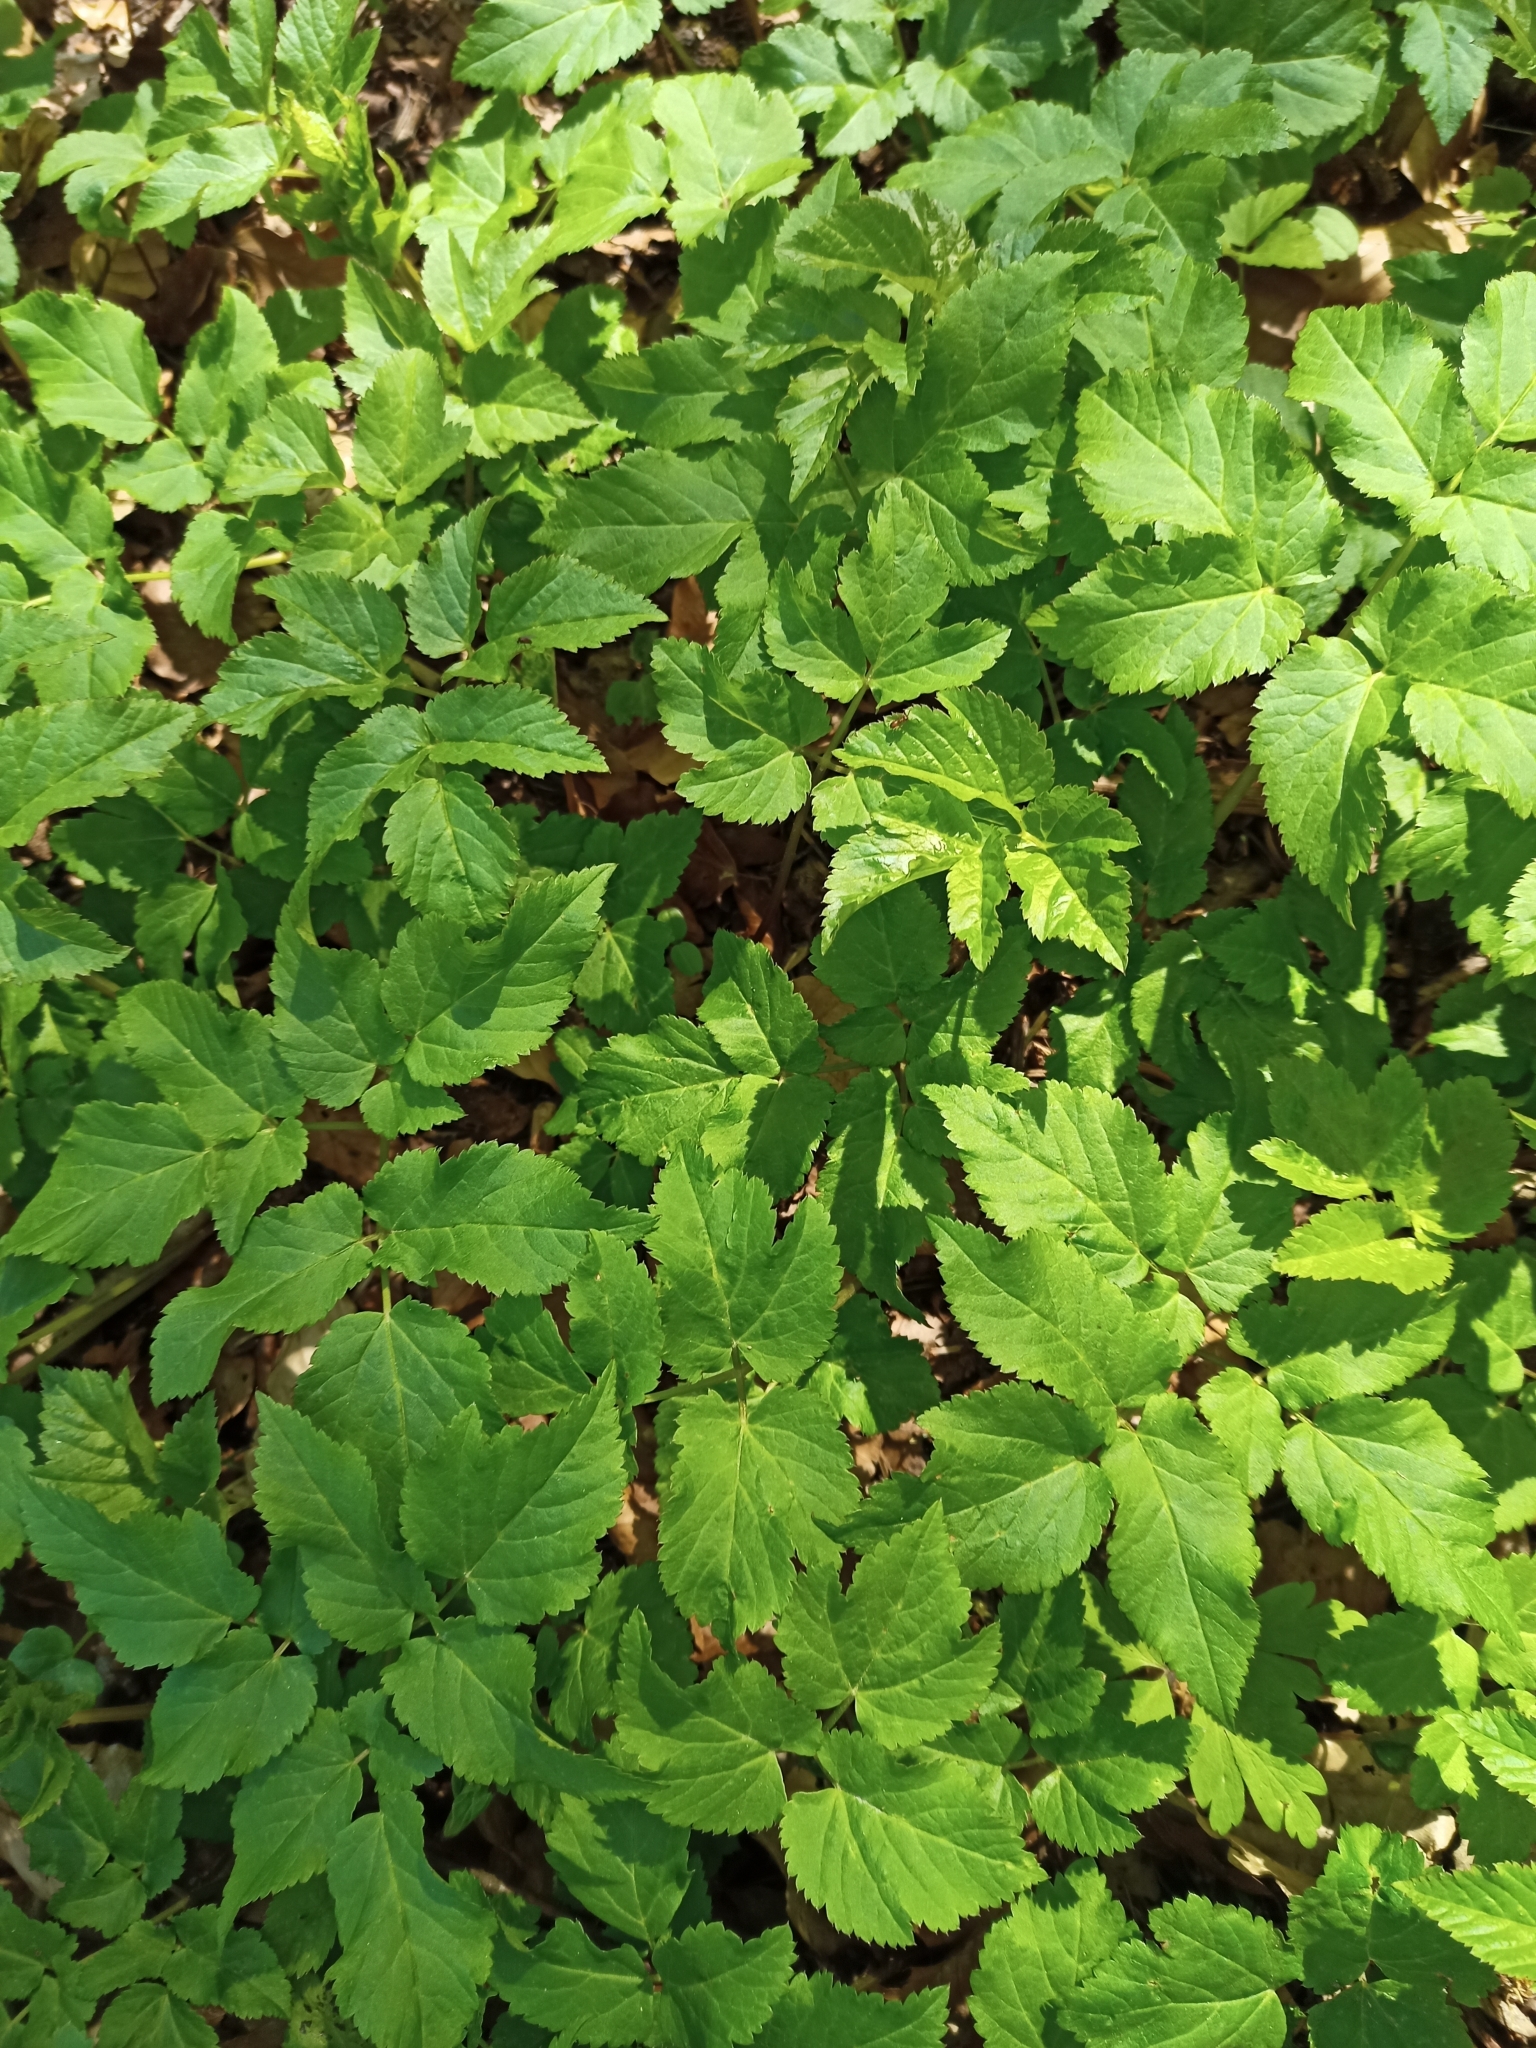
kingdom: Plantae
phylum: Tracheophyta
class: Magnoliopsida
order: Apiales
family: Apiaceae
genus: Aegopodium
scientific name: Aegopodium podagraria
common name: Ground-elder
